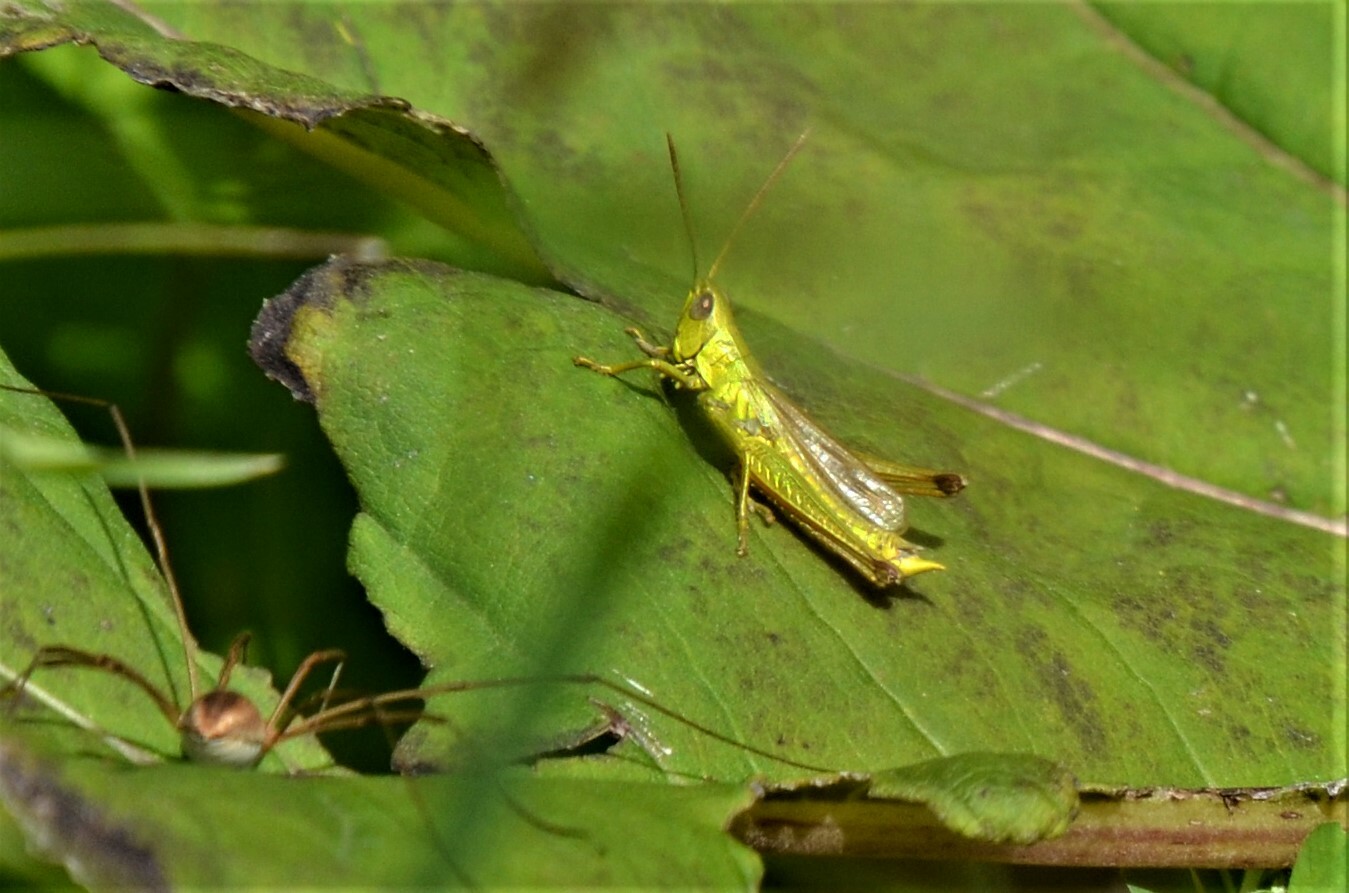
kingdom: Animalia
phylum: Arthropoda
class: Insecta
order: Orthoptera
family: Acrididae
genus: Chrysochraon
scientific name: Chrysochraon dispar
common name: Large gold grasshopper
